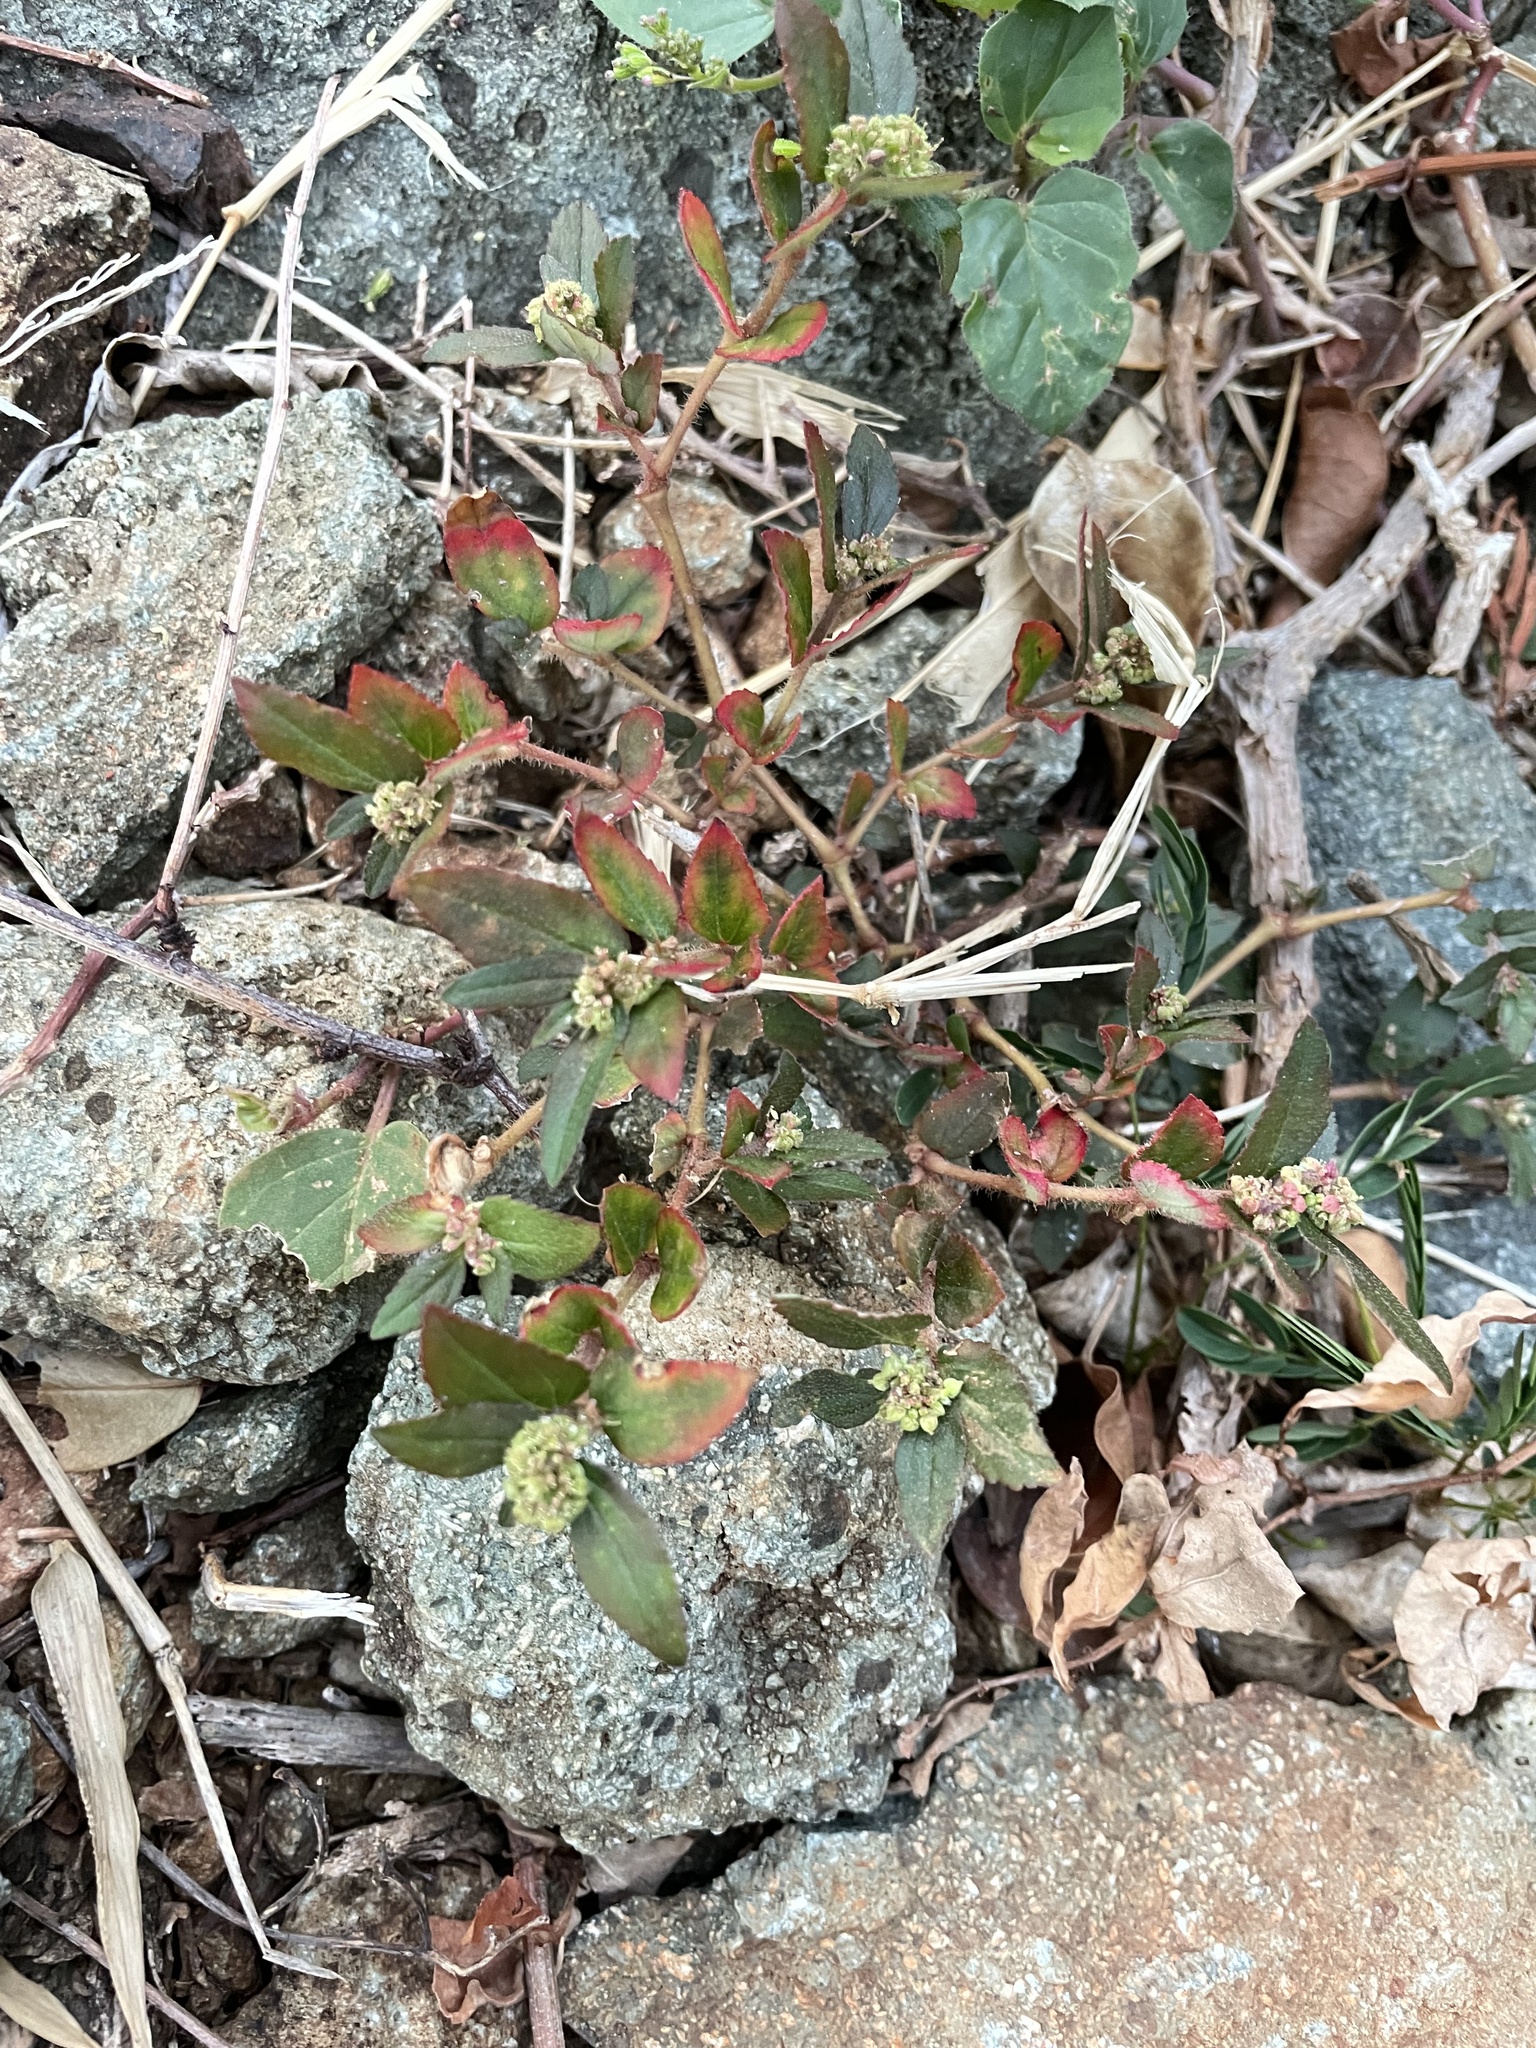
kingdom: Plantae
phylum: Tracheophyta
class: Magnoliopsida
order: Malpighiales
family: Euphorbiaceae
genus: Euphorbia
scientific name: Euphorbia hirta
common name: Pillpod sandmat
